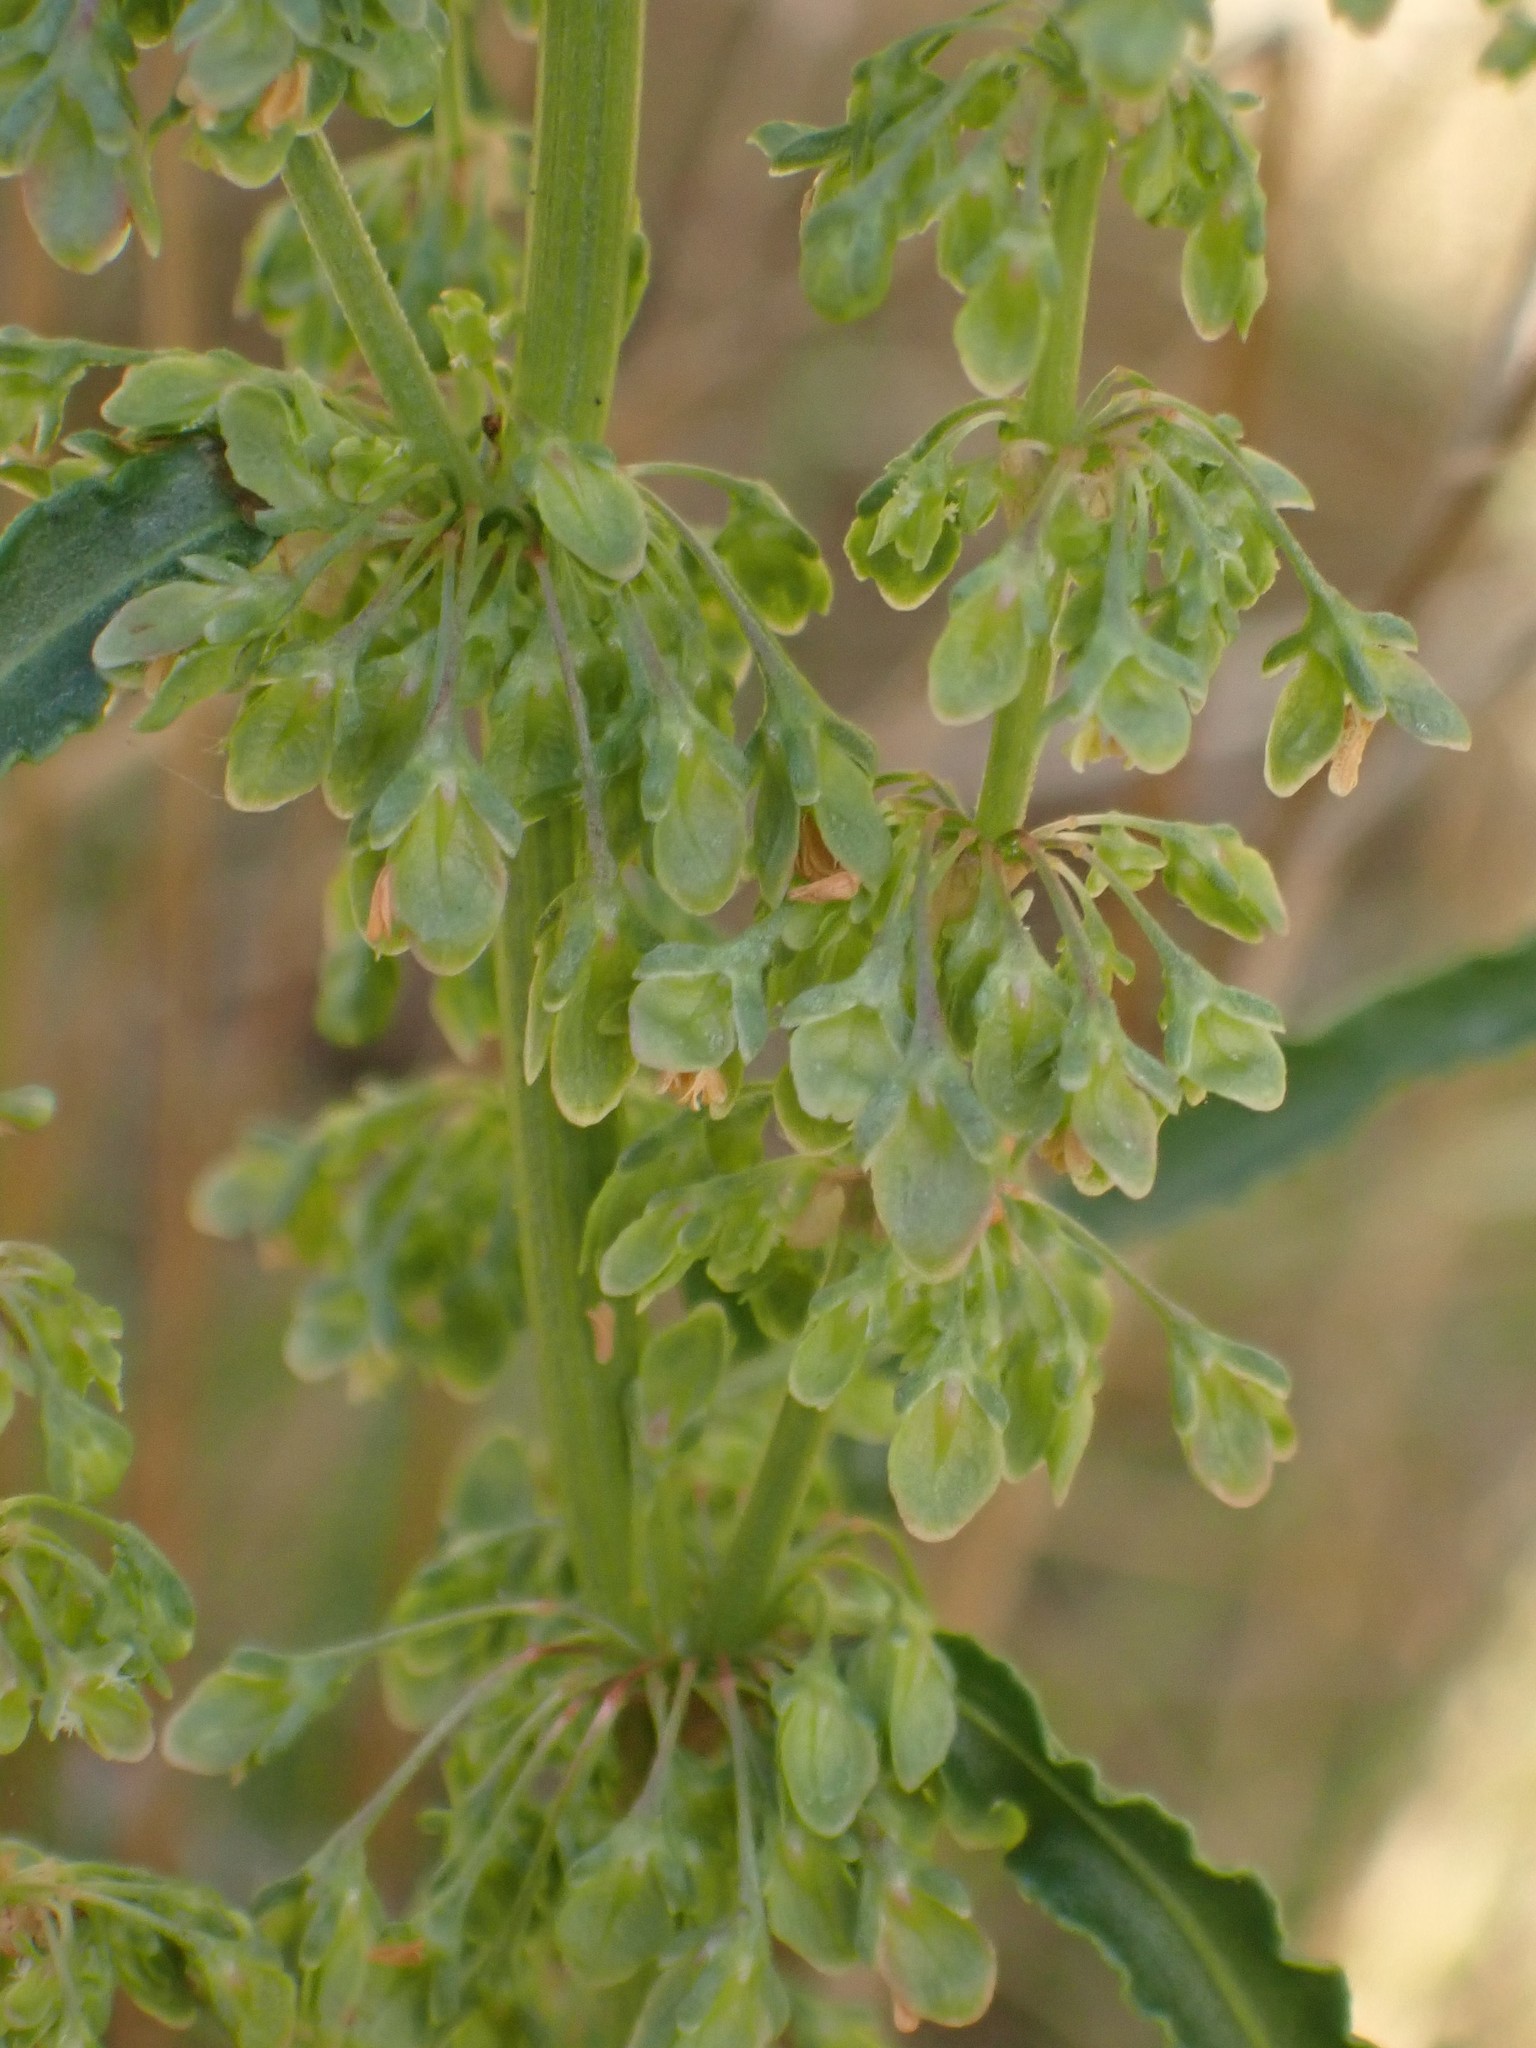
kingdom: Plantae
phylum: Tracheophyta
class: Magnoliopsida
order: Caryophyllales
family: Polygonaceae
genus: Rumex
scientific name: Rumex crispus
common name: Curled dock
